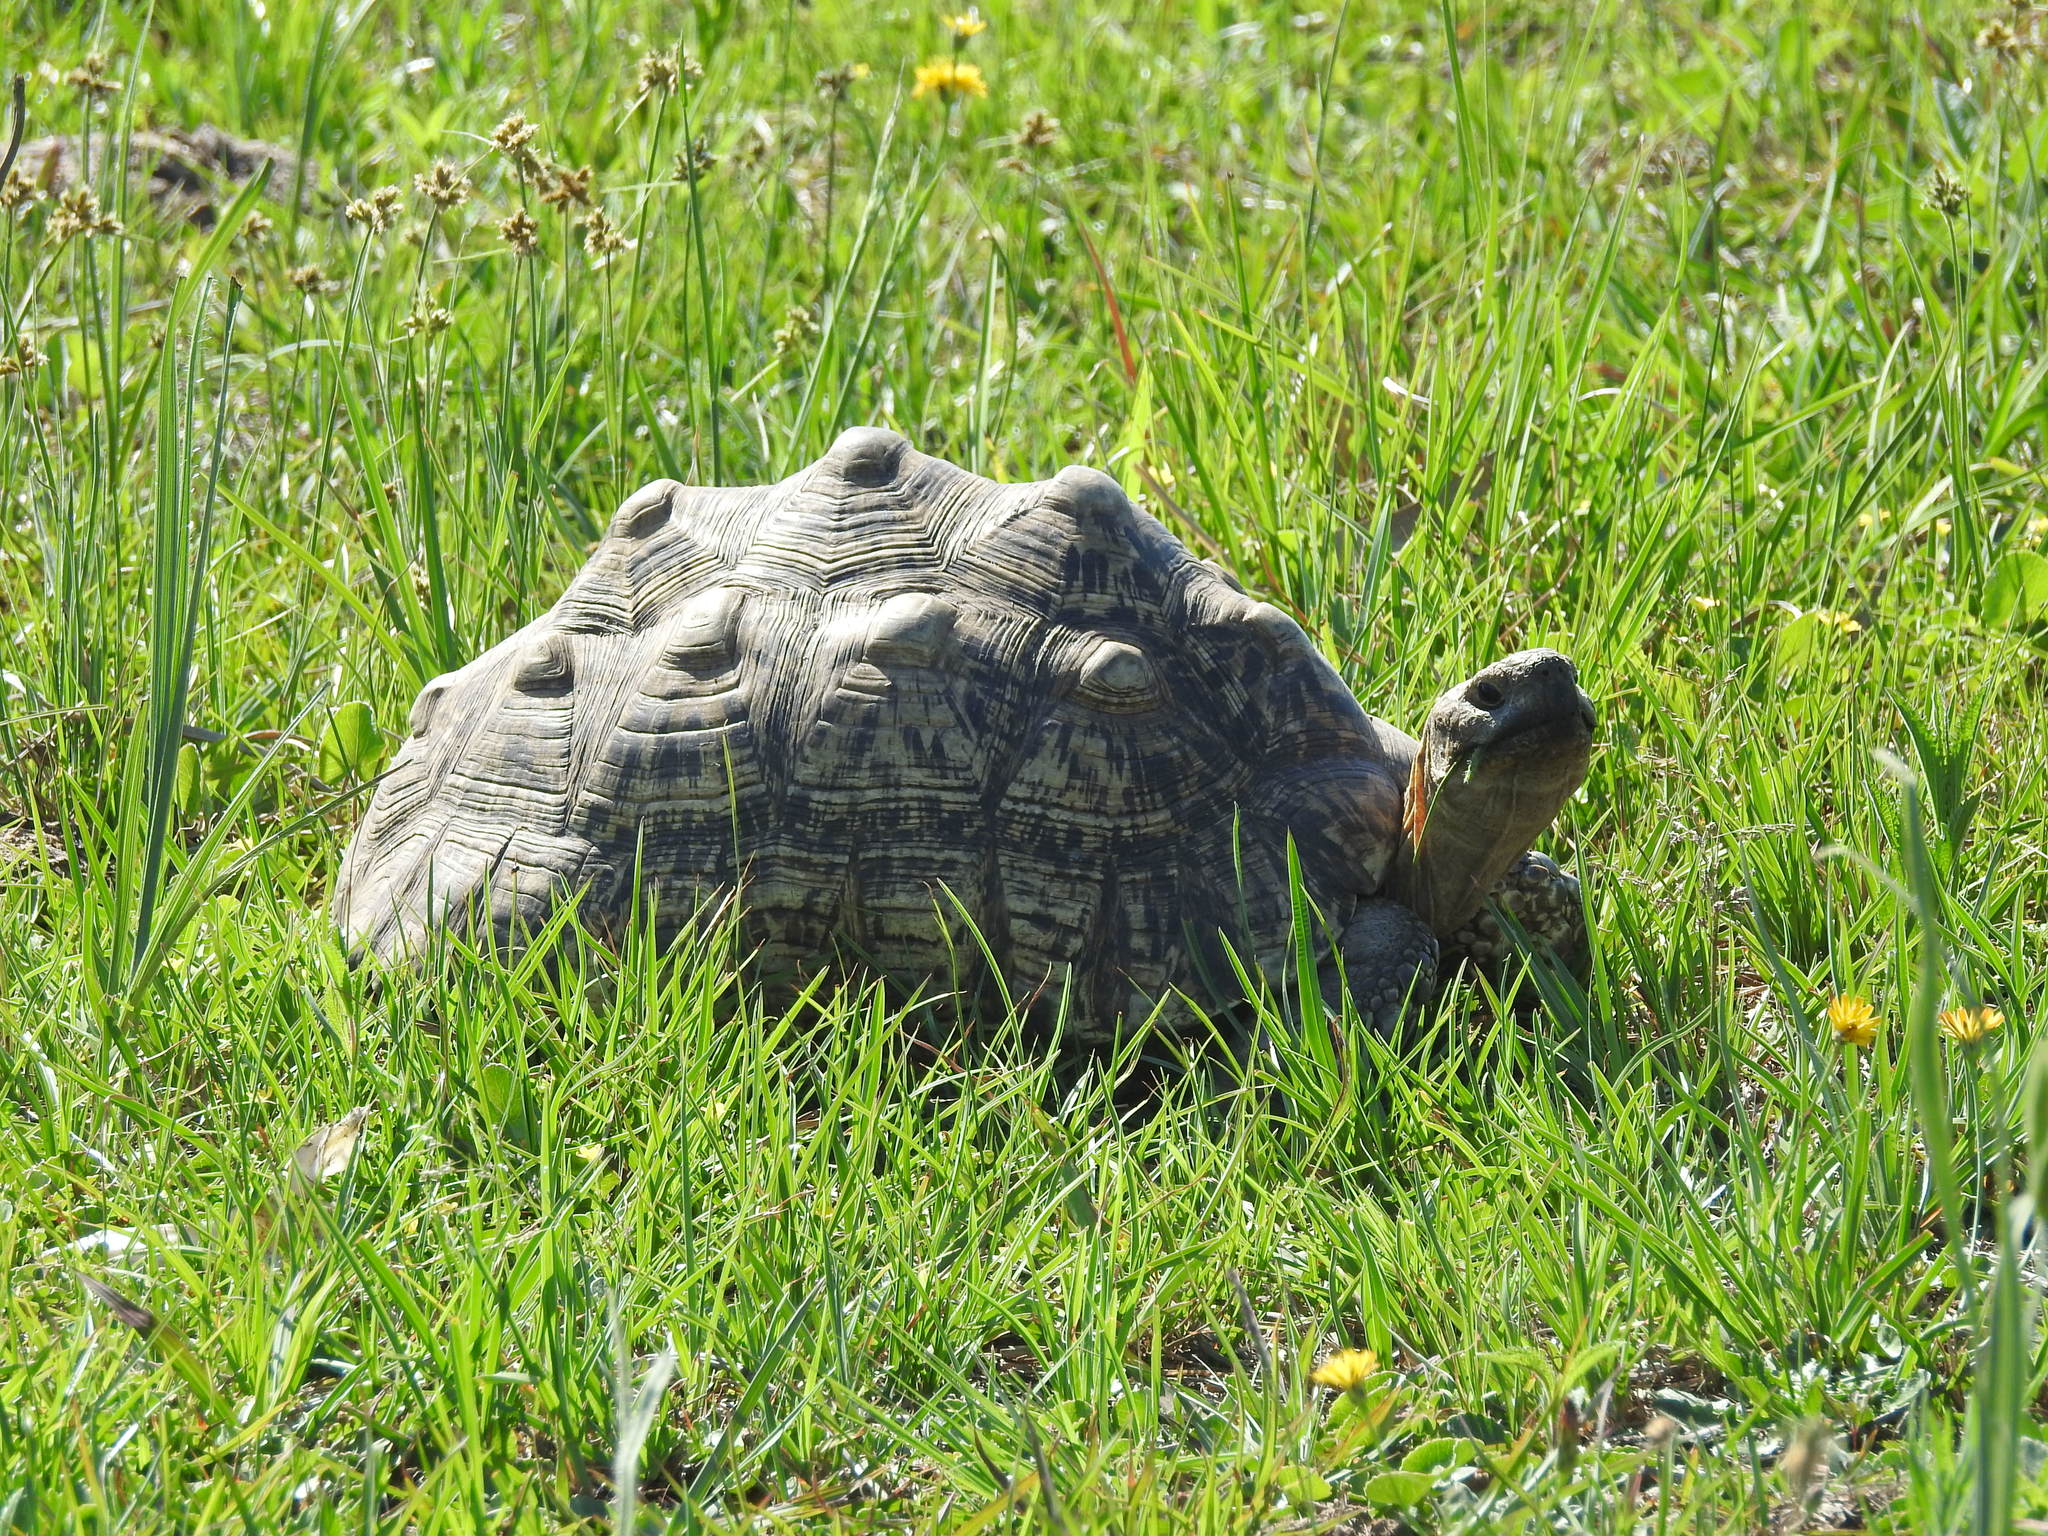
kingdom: Animalia
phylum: Chordata
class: Testudines
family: Testudinidae
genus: Stigmochelys
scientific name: Stigmochelys pardalis
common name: Leopard tortoise
